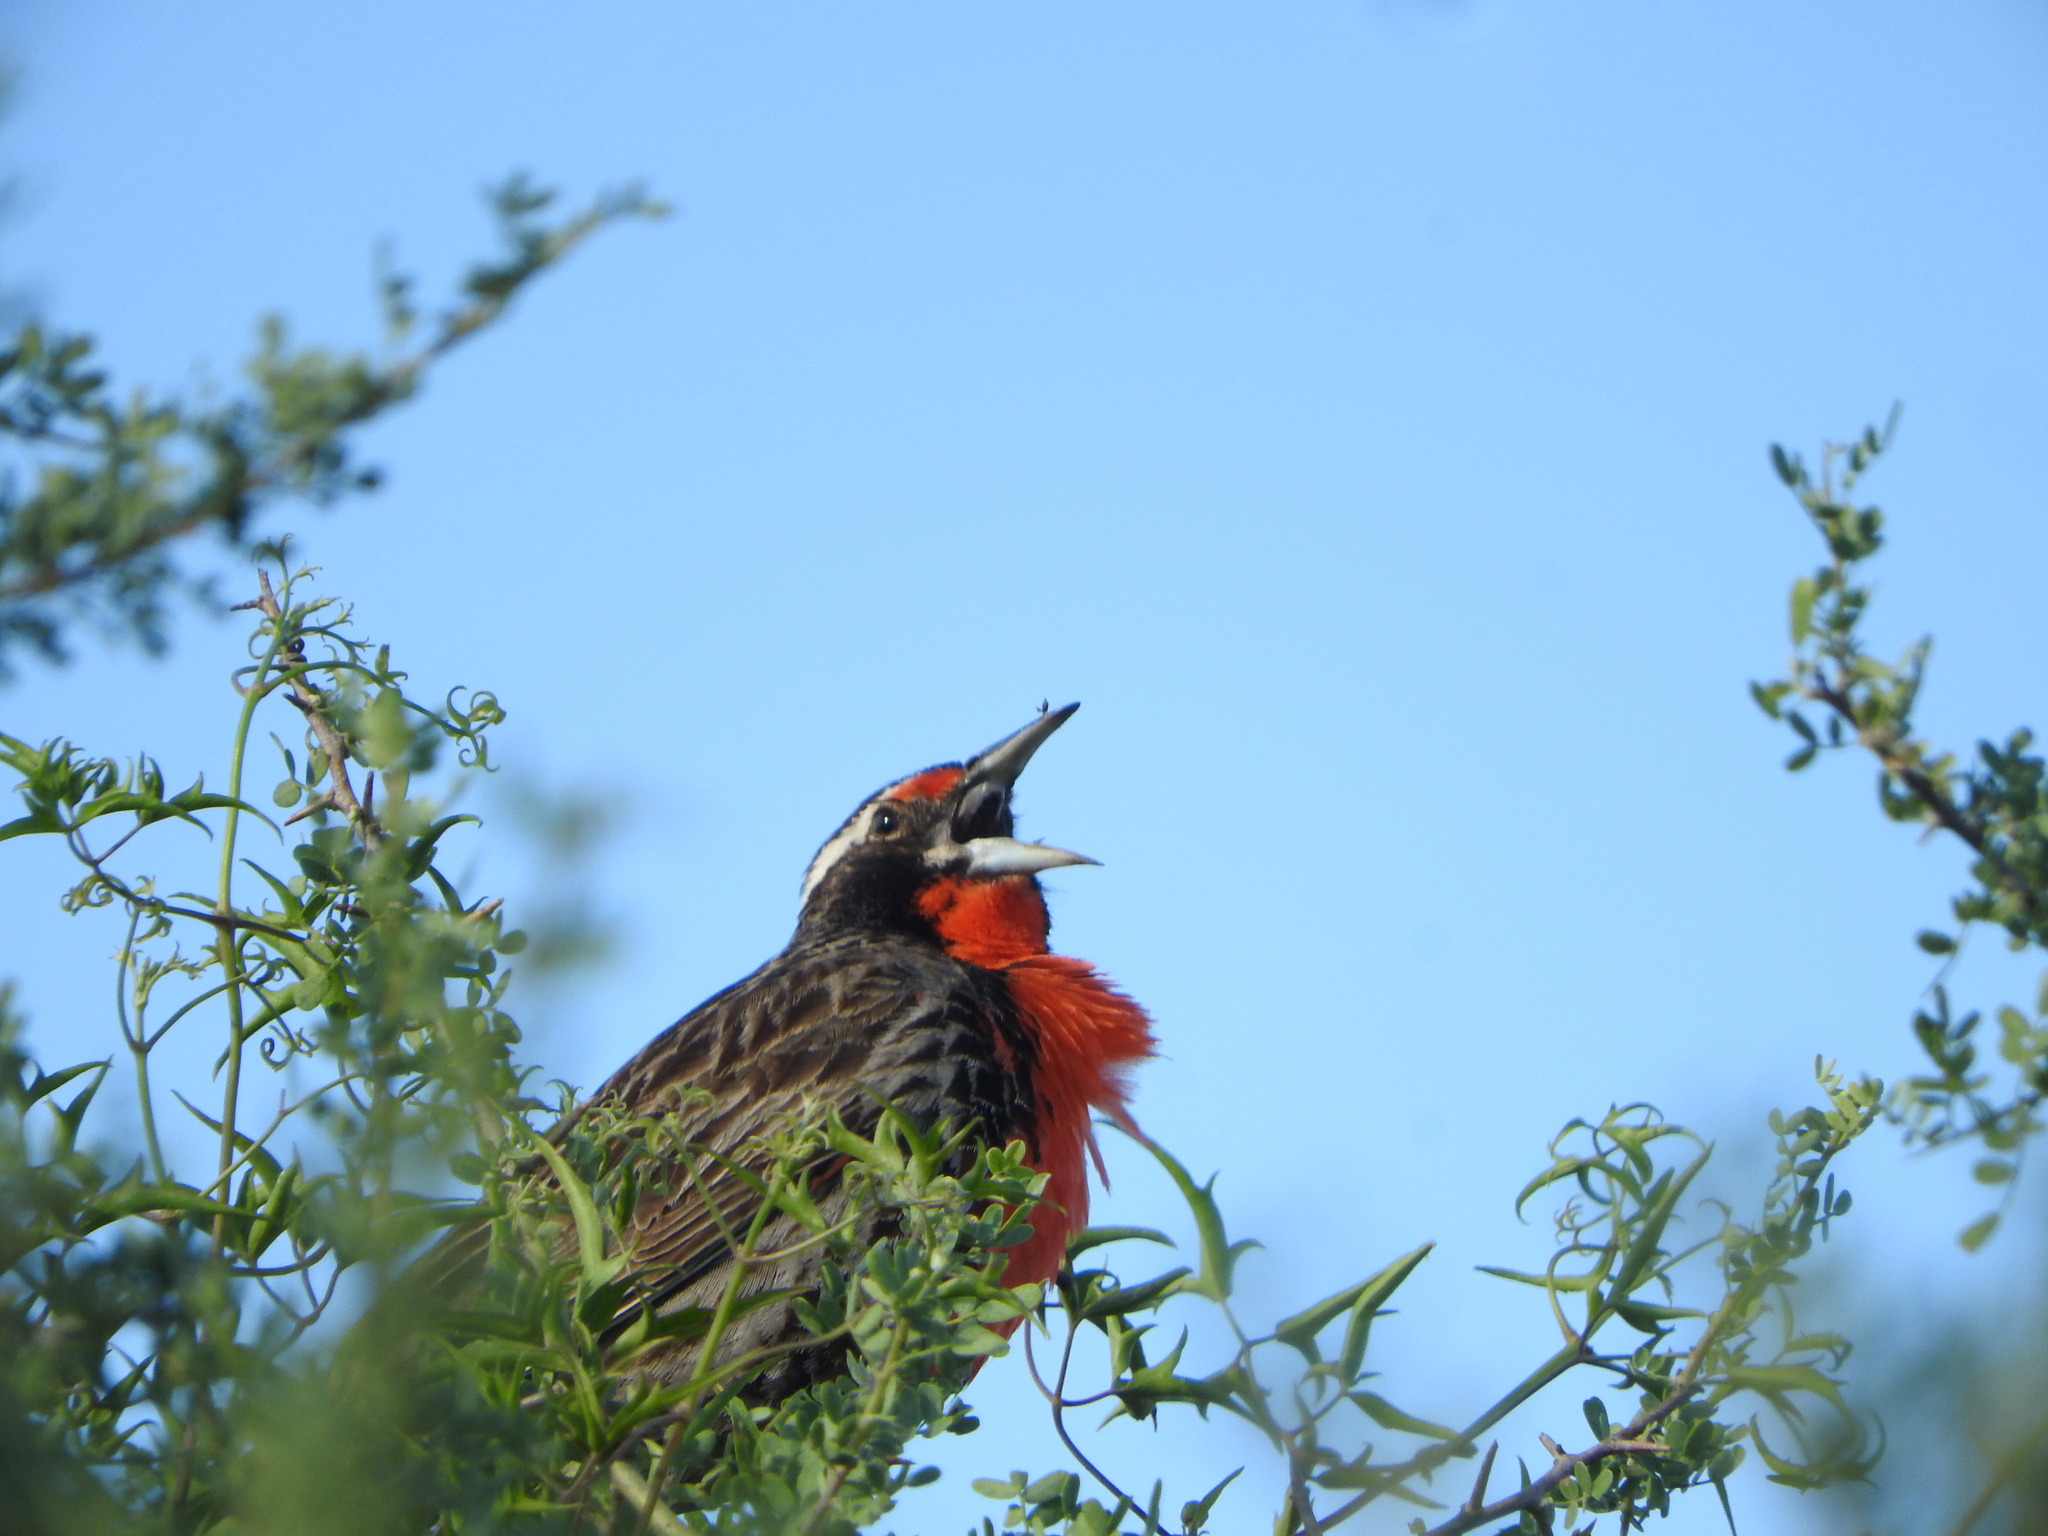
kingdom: Animalia
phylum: Chordata
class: Aves
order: Passeriformes
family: Icteridae
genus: Sturnella
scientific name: Sturnella loyca
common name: Long-tailed meadowlark
